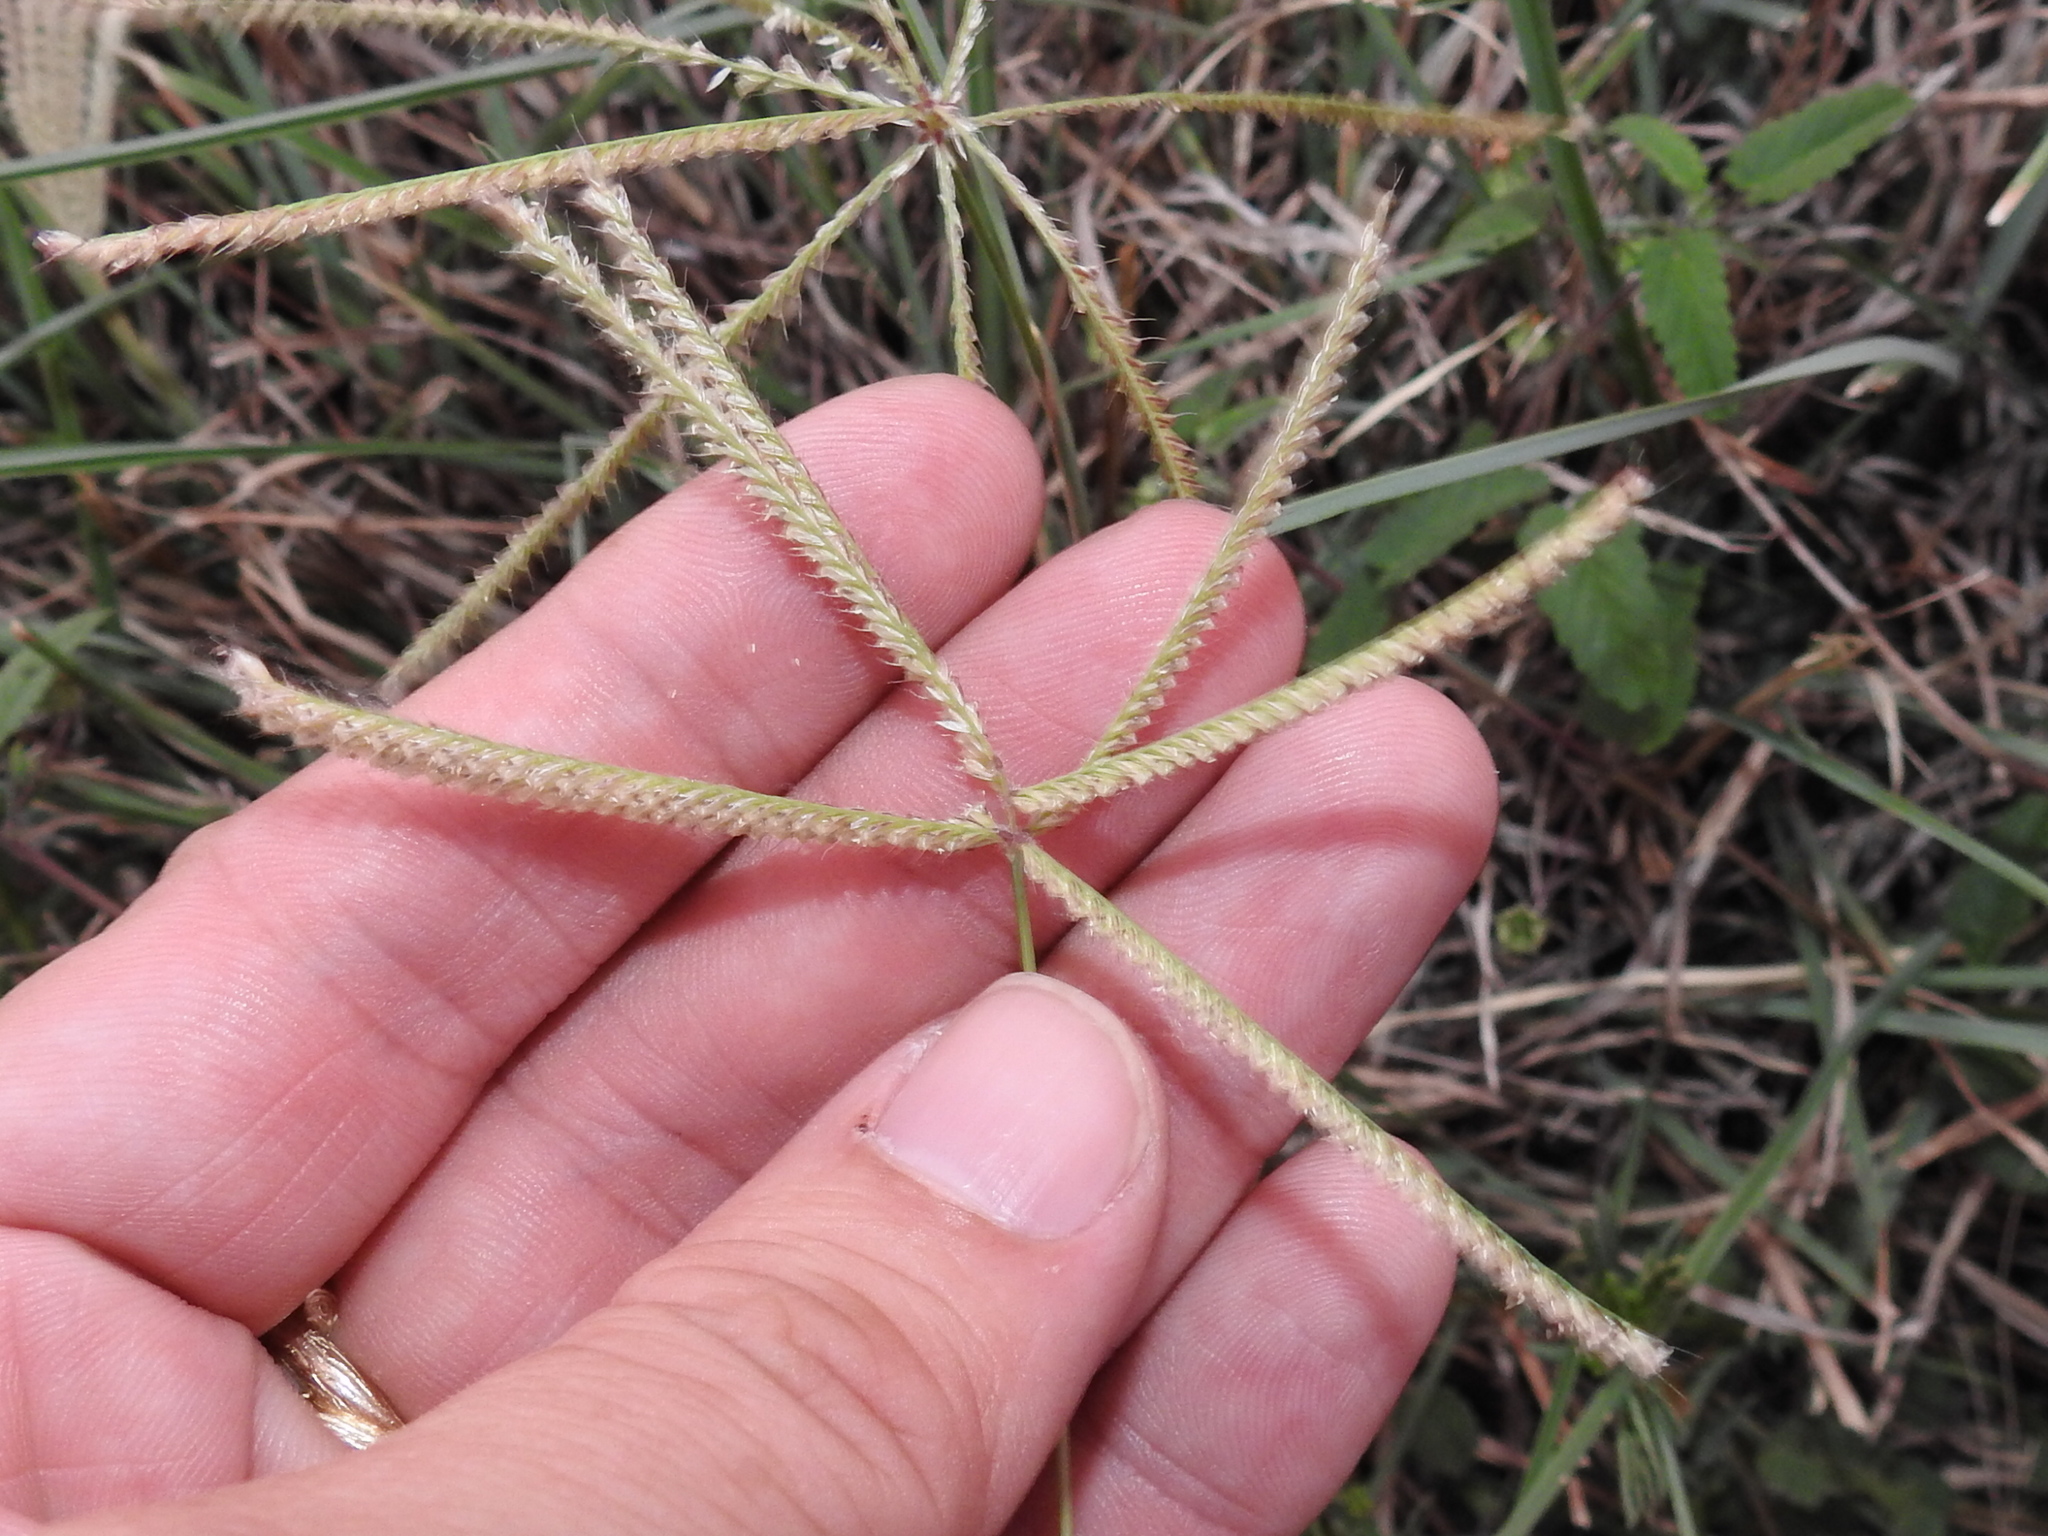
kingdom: Plantae
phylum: Tracheophyta
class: Liliopsida
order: Poales
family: Poaceae
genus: Chloris
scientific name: Chloris cucullata
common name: Hooded windmill grass
